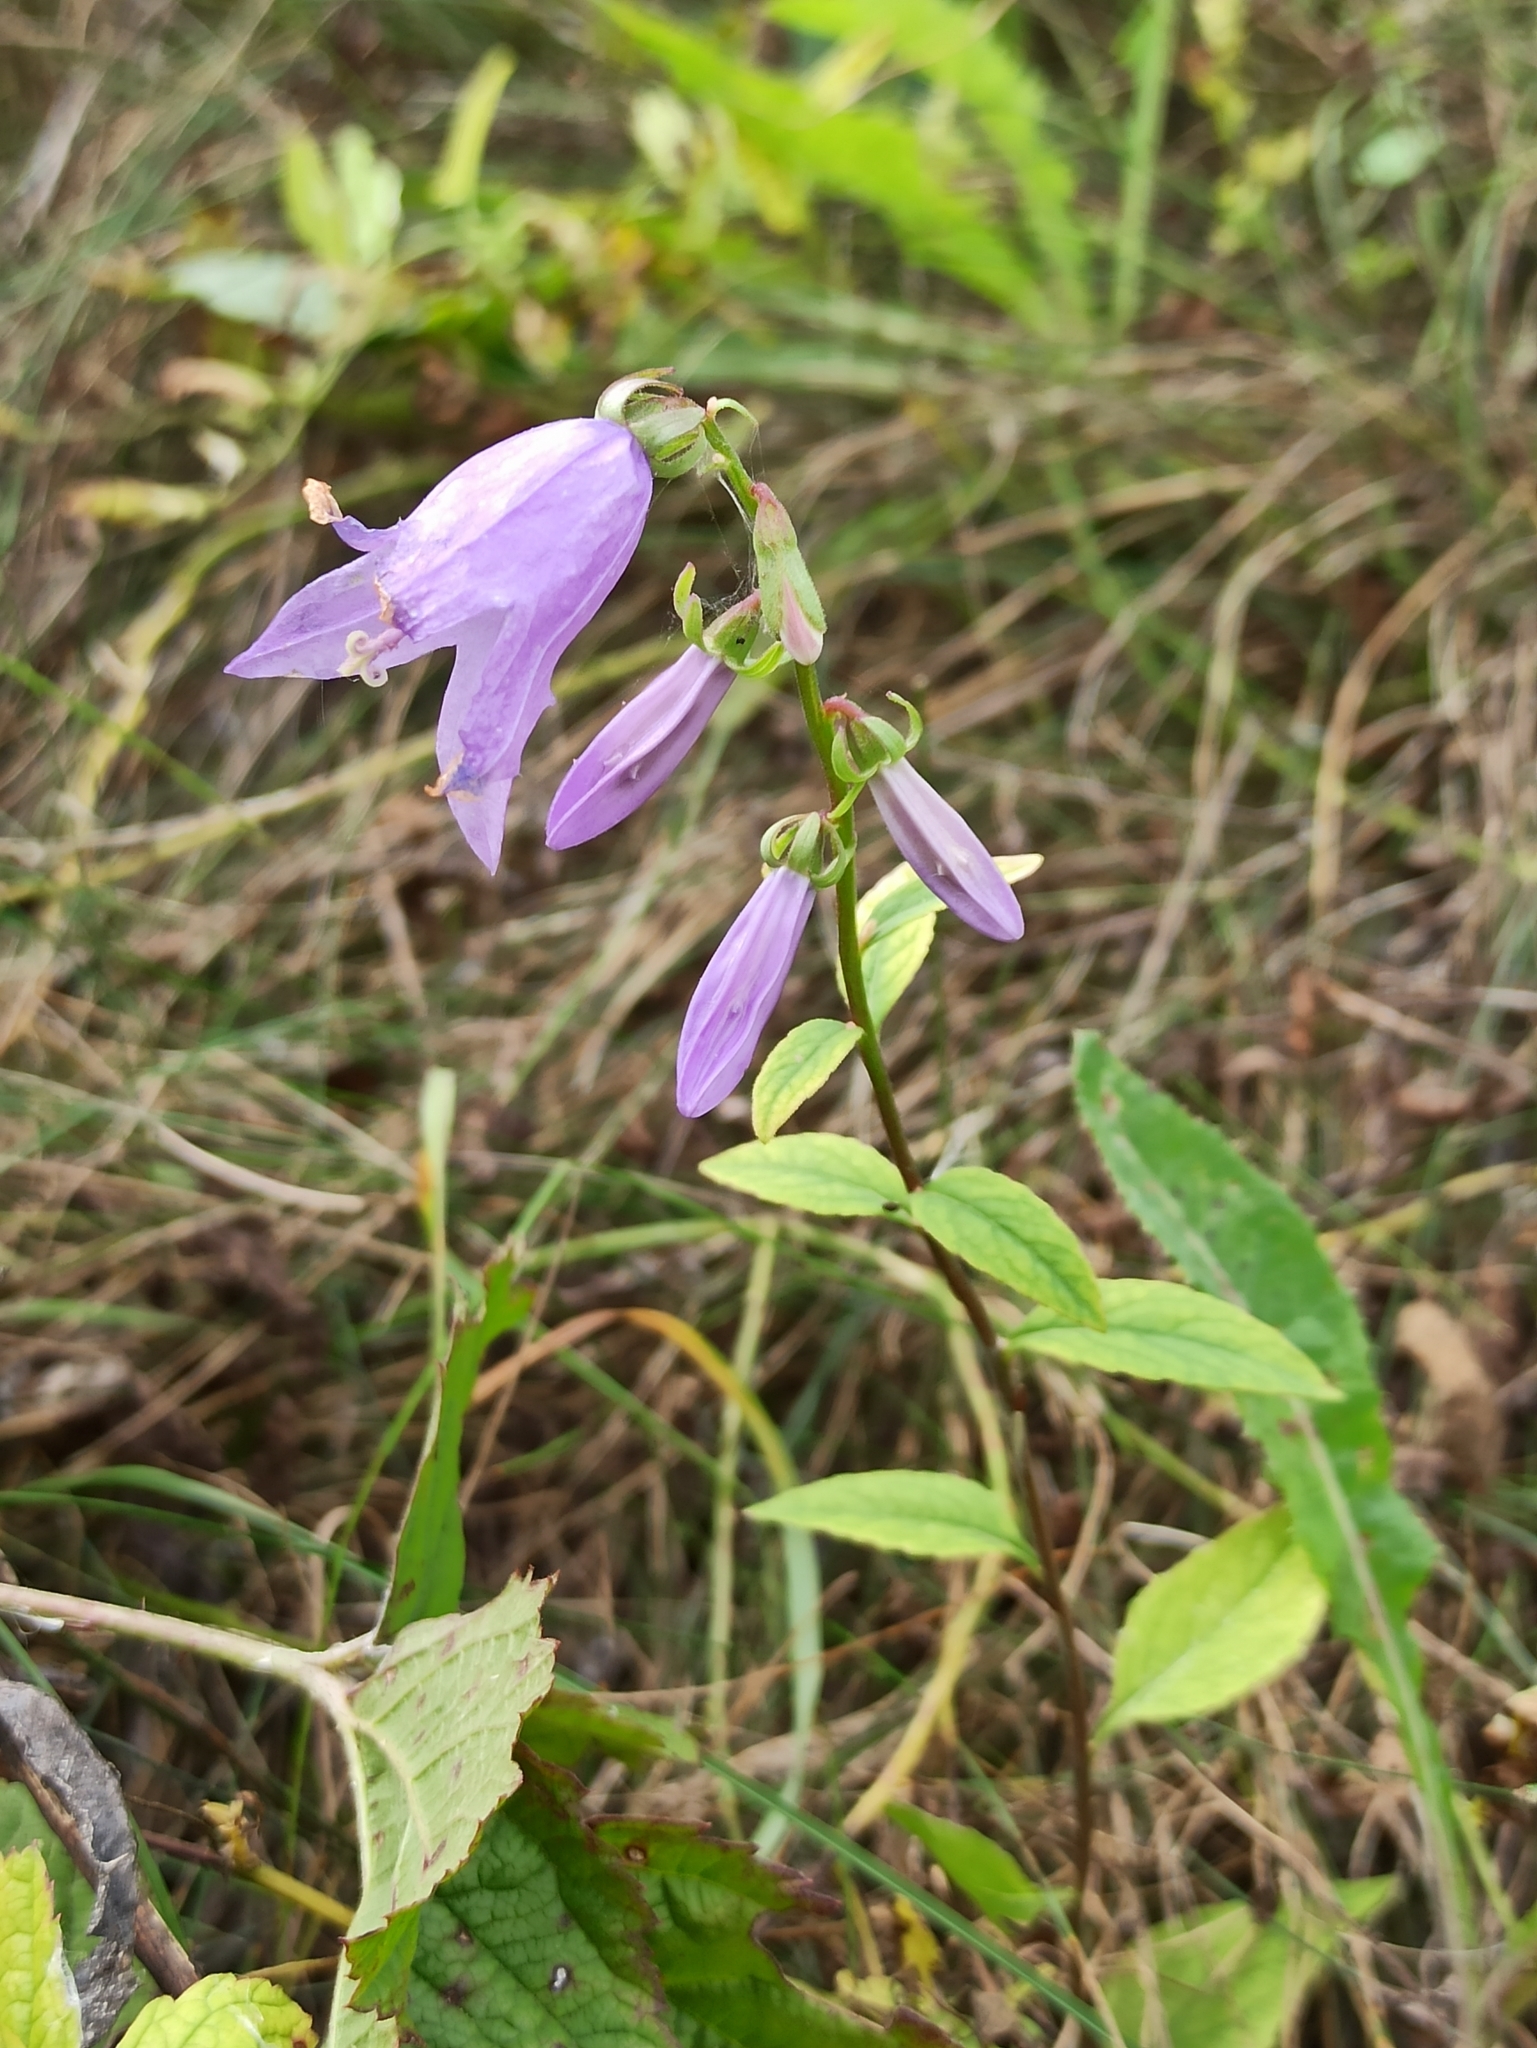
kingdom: Plantae
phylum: Tracheophyta
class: Magnoliopsida
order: Asterales
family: Campanulaceae
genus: Campanula
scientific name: Campanula rapunculoides
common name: Creeping bellflower
